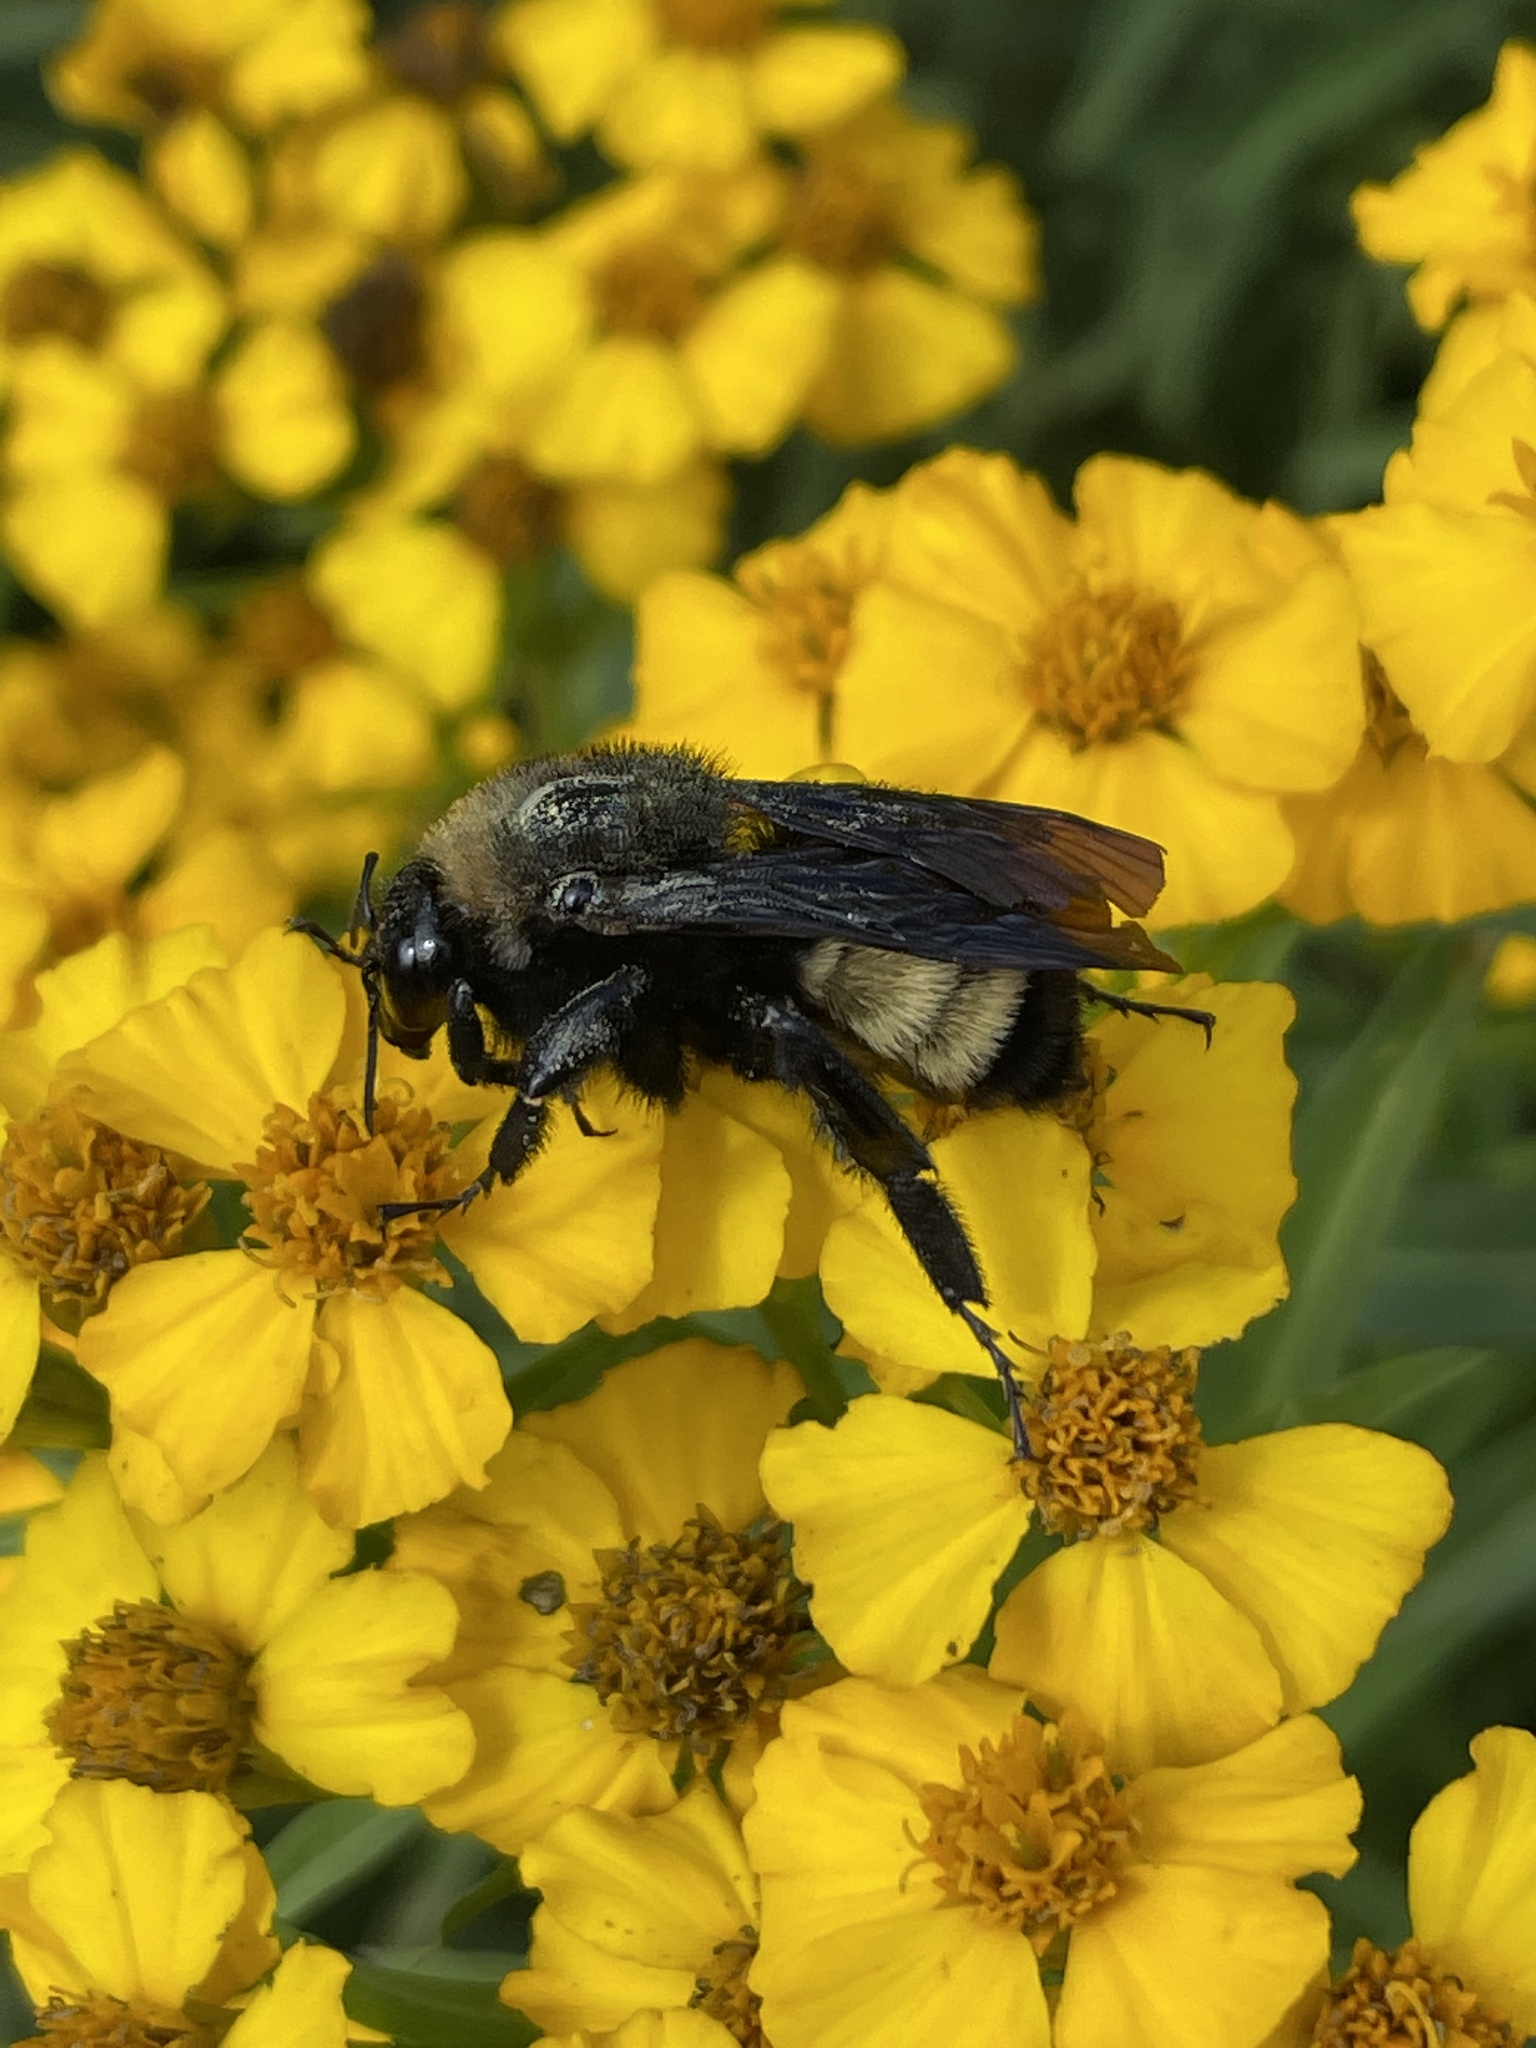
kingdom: Animalia
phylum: Arthropoda
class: Insecta
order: Hymenoptera
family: Apidae
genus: Bombus
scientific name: Bombus pensylvanicus
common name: Bumble bee
